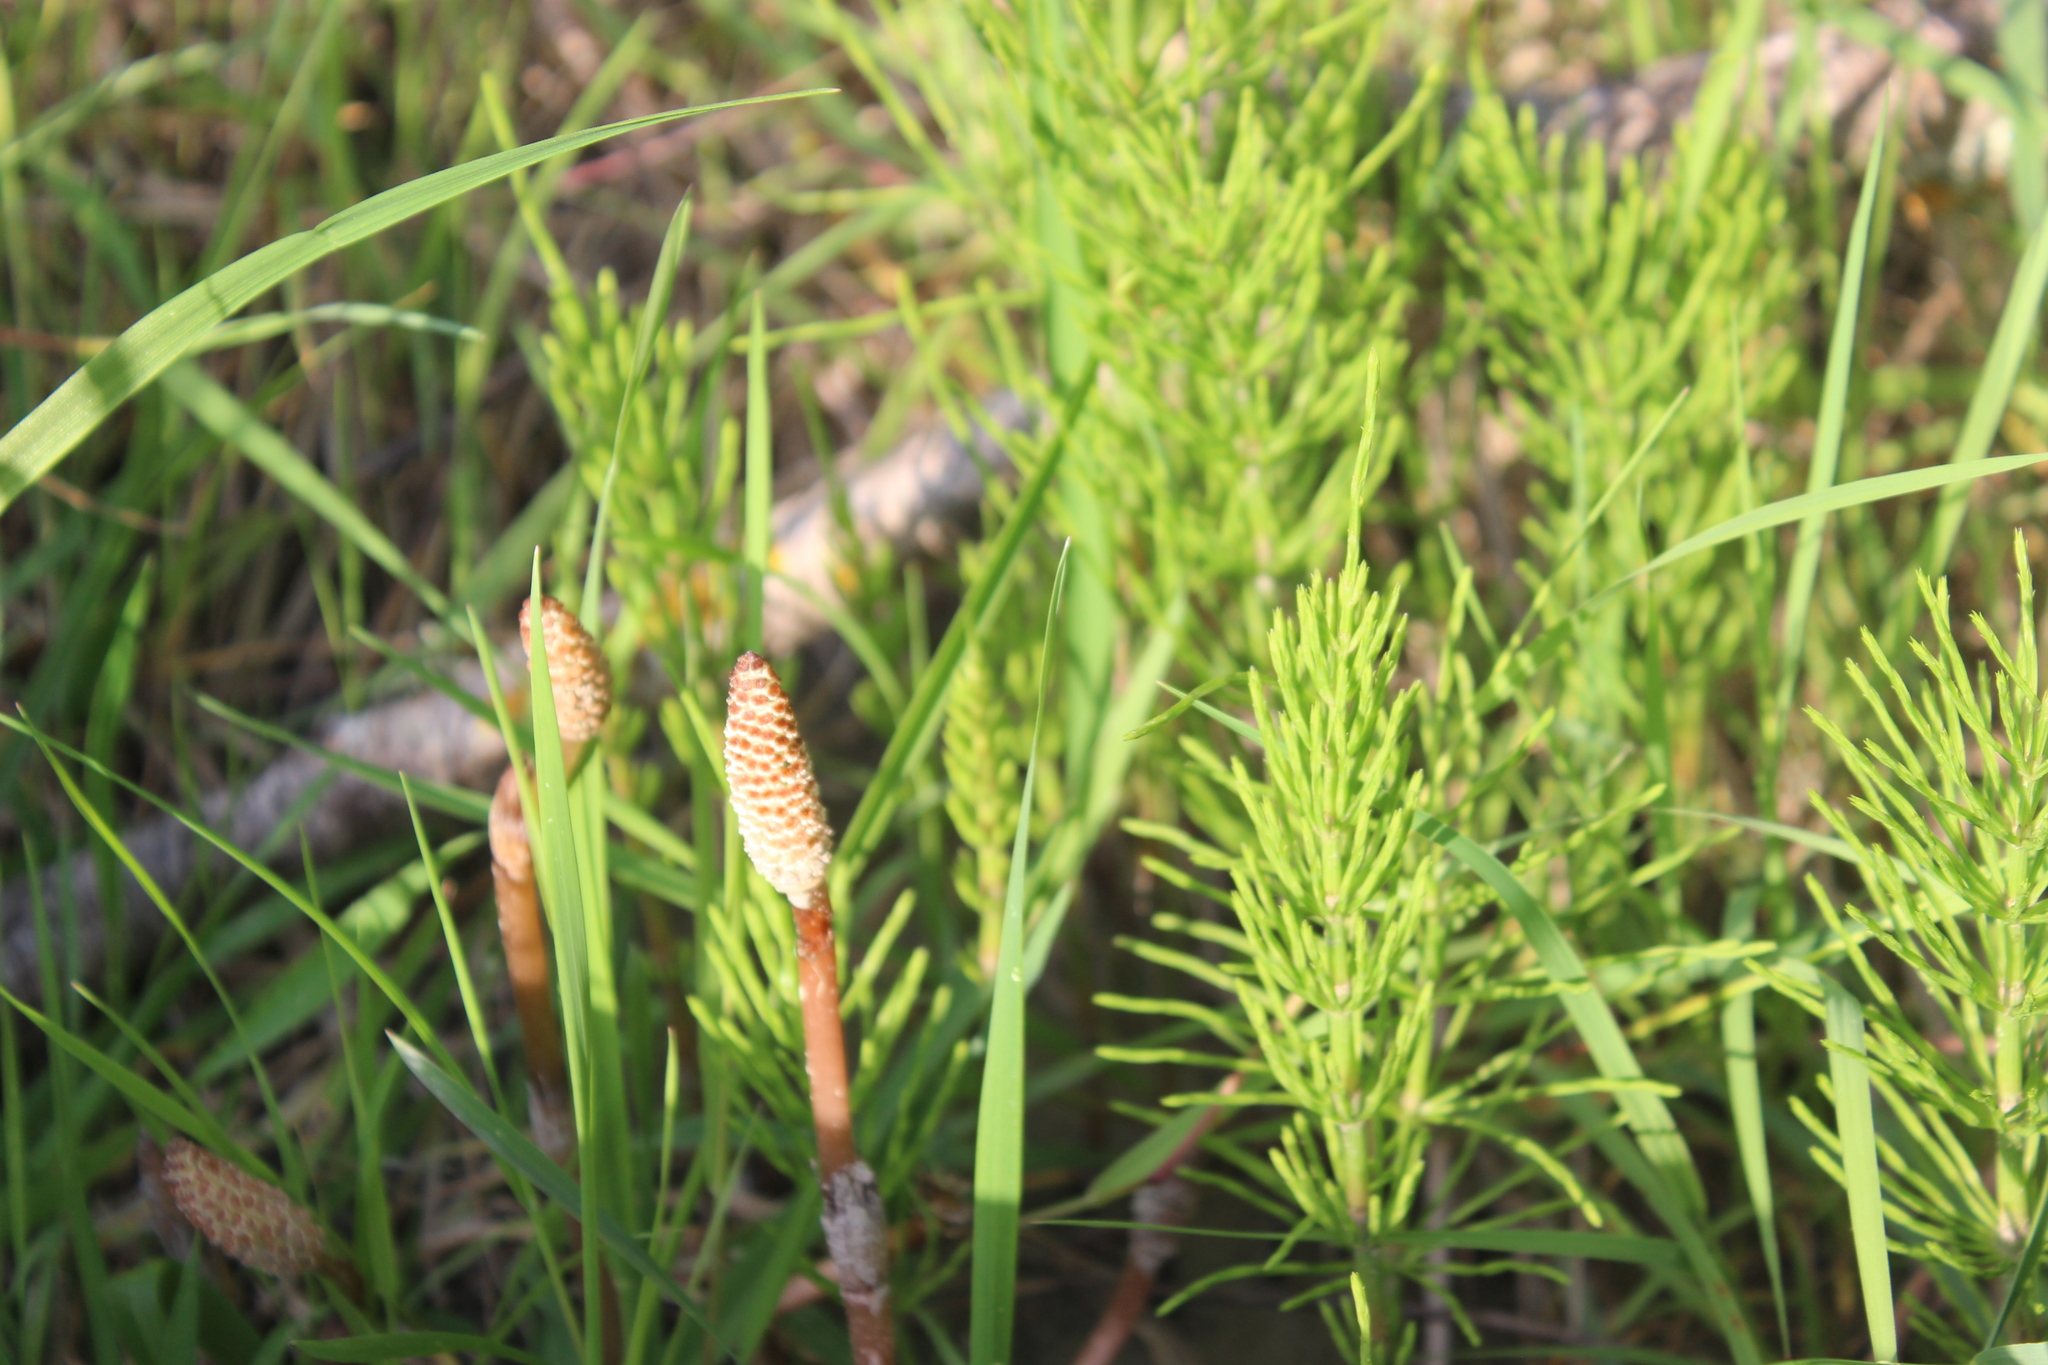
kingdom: Plantae
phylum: Tracheophyta
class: Polypodiopsida
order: Equisetales
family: Equisetaceae
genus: Equisetum
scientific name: Equisetum arvense
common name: Field horsetail
